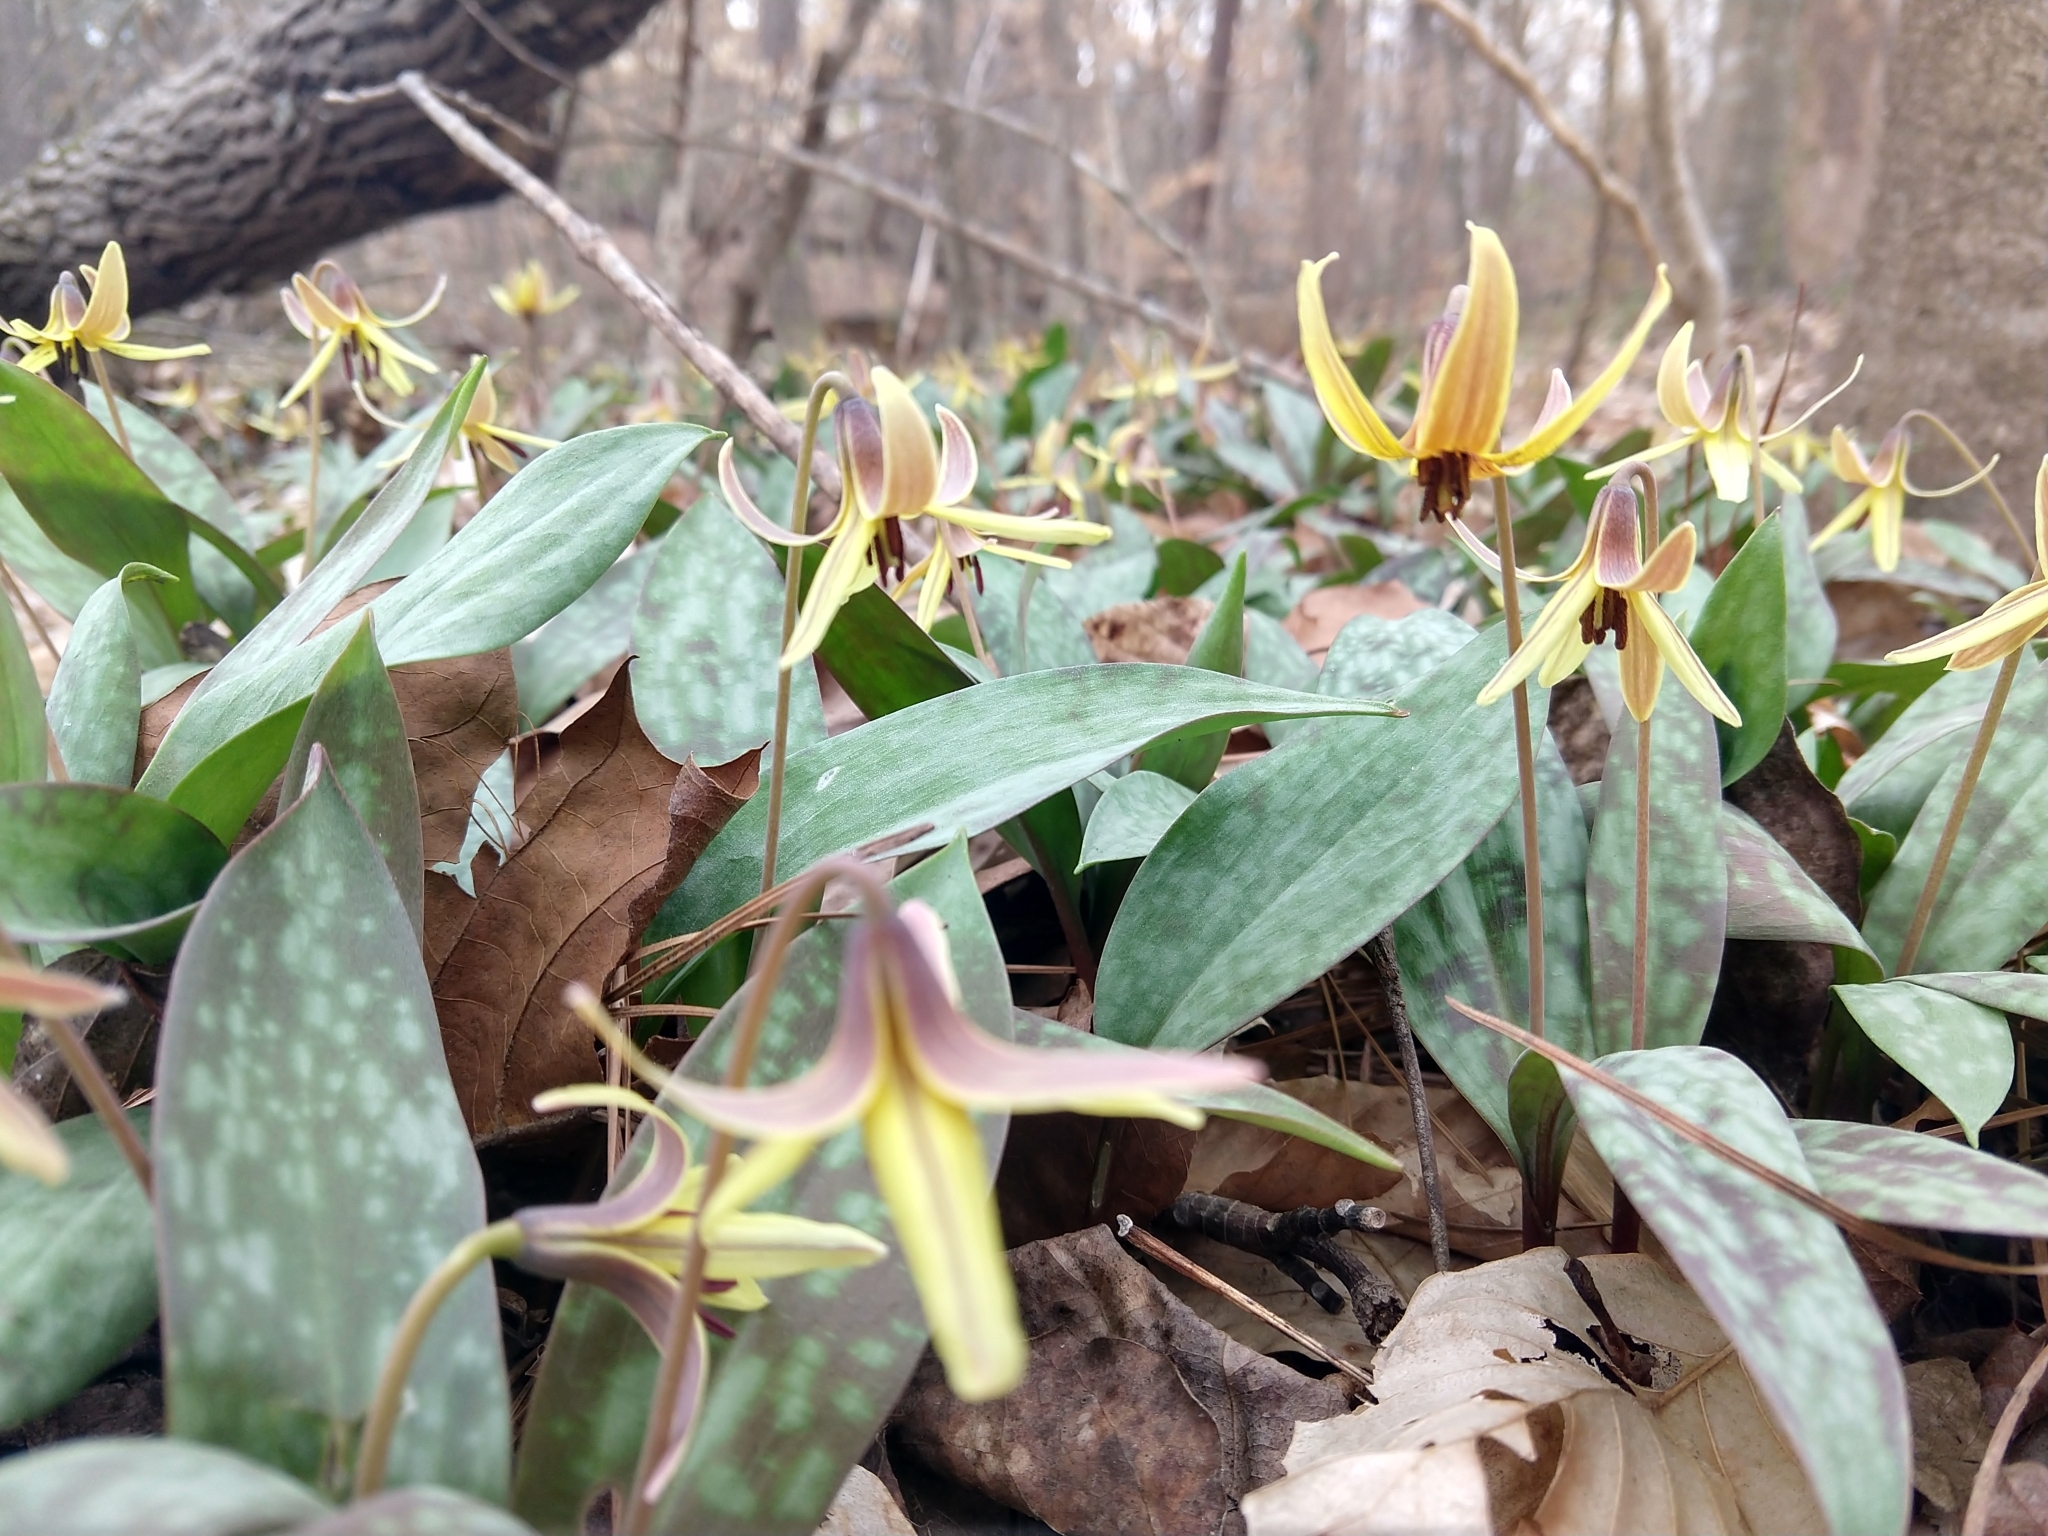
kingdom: Plantae
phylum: Tracheophyta
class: Liliopsida
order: Liliales
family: Liliaceae
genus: Erythronium
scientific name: Erythronium umbilicatum
